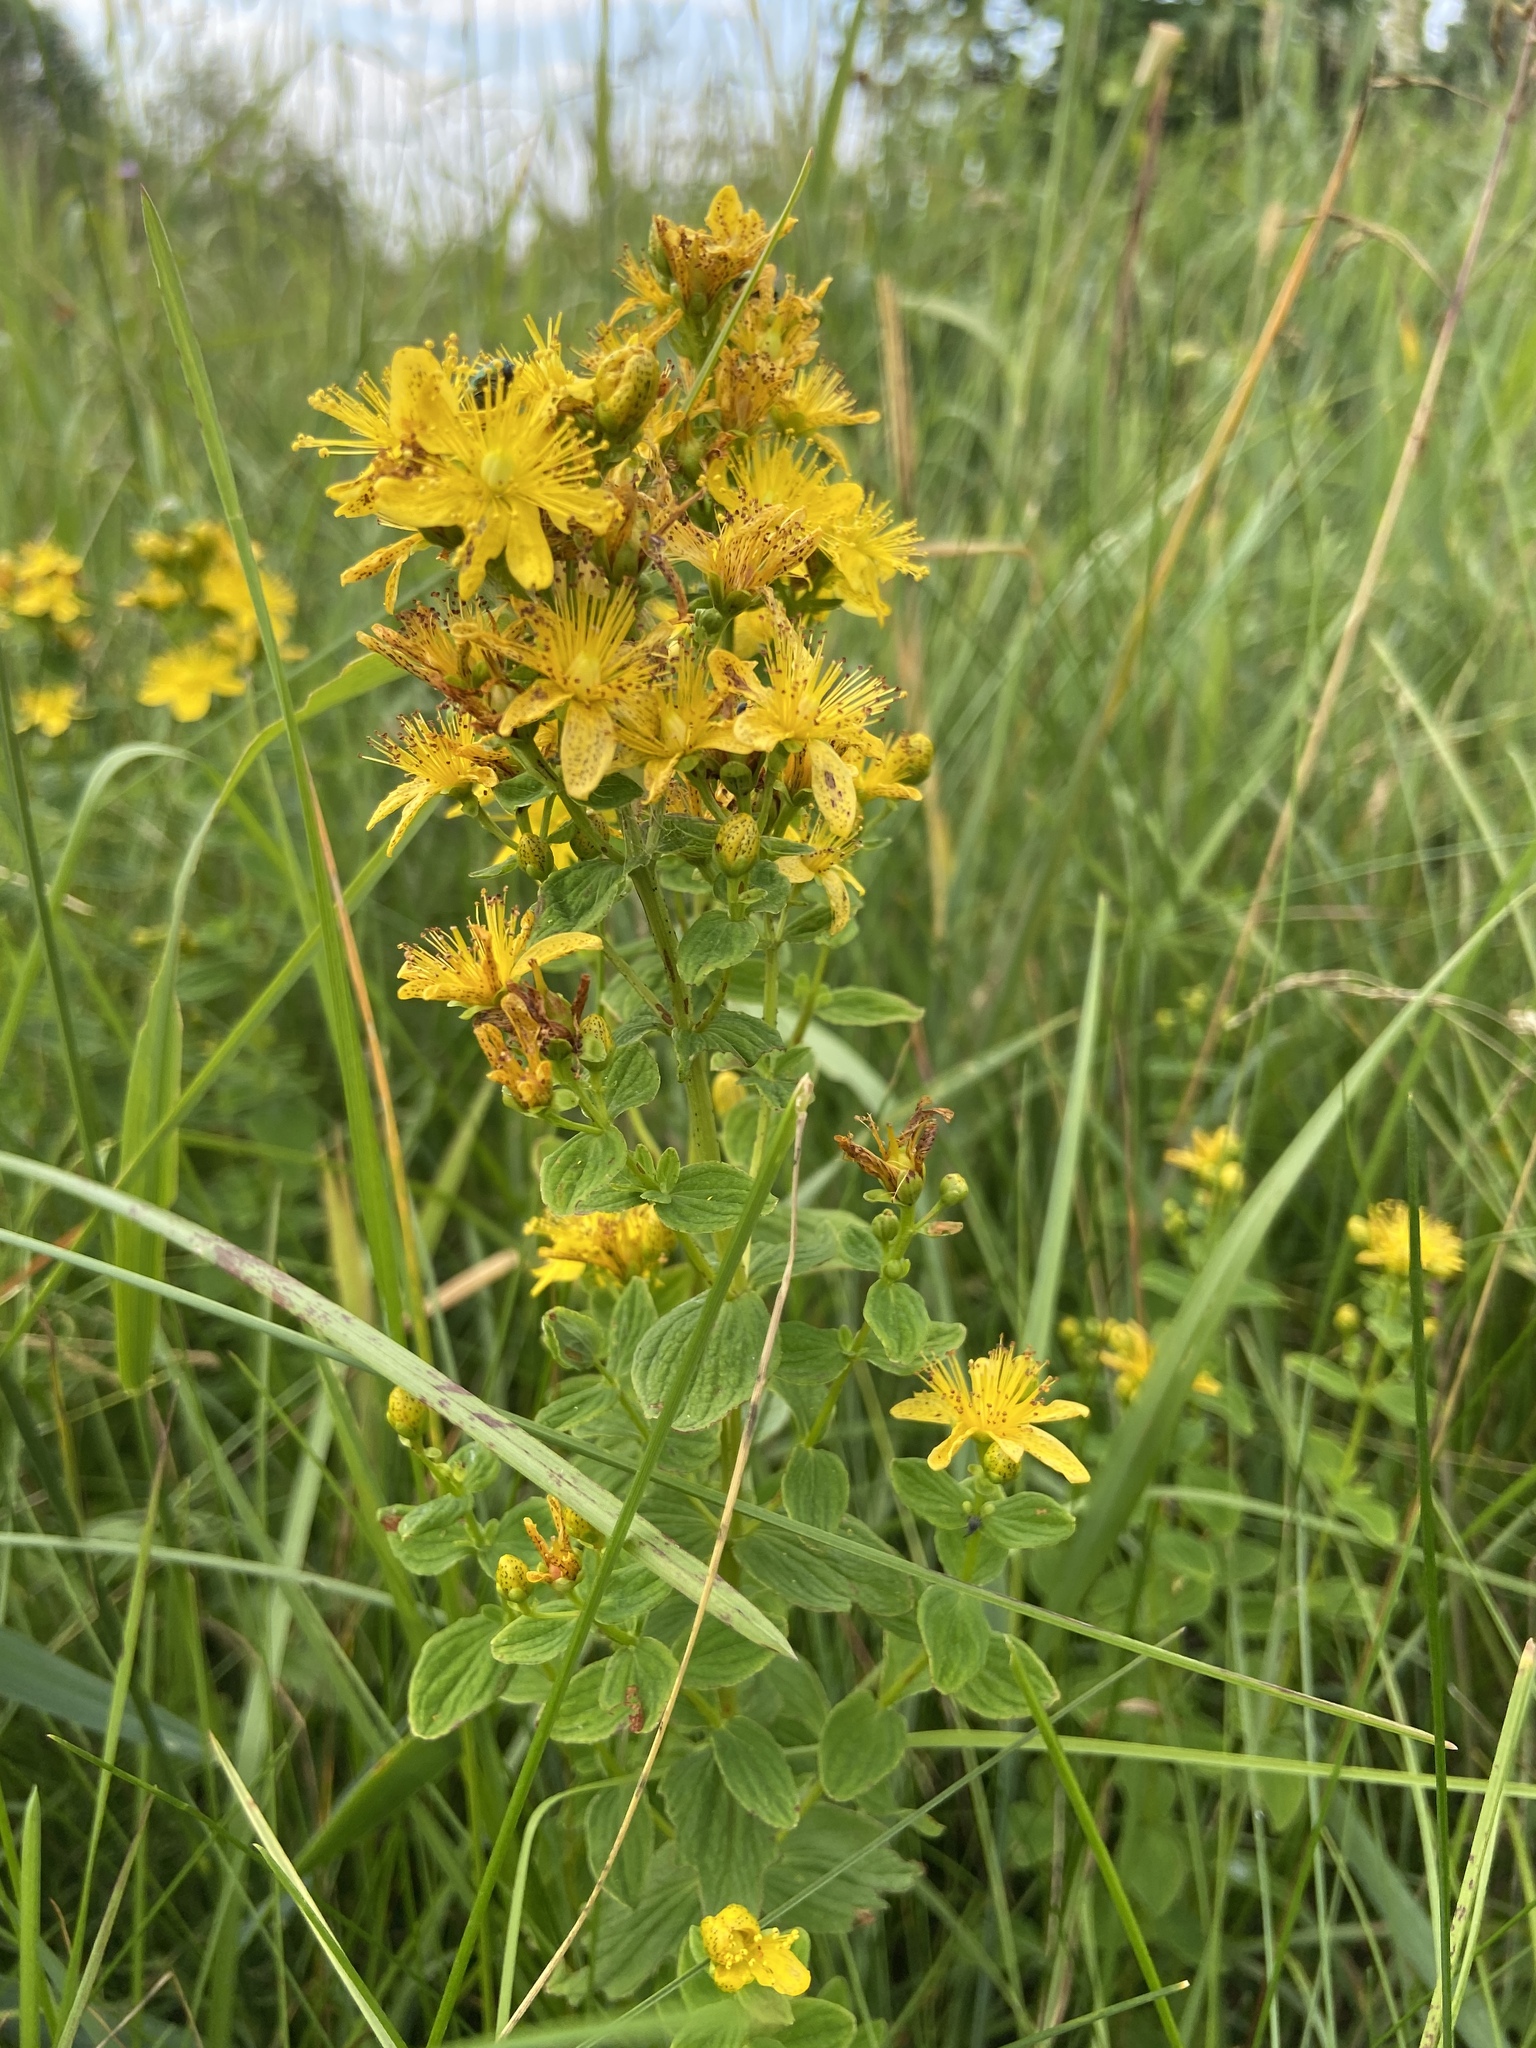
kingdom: Plantae
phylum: Tracheophyta
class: Magnoliopsida
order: Malpighiales
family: Hypericaceae
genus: Hypericum
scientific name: Hypericum maculatum
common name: Imperforate st. john's-wort
